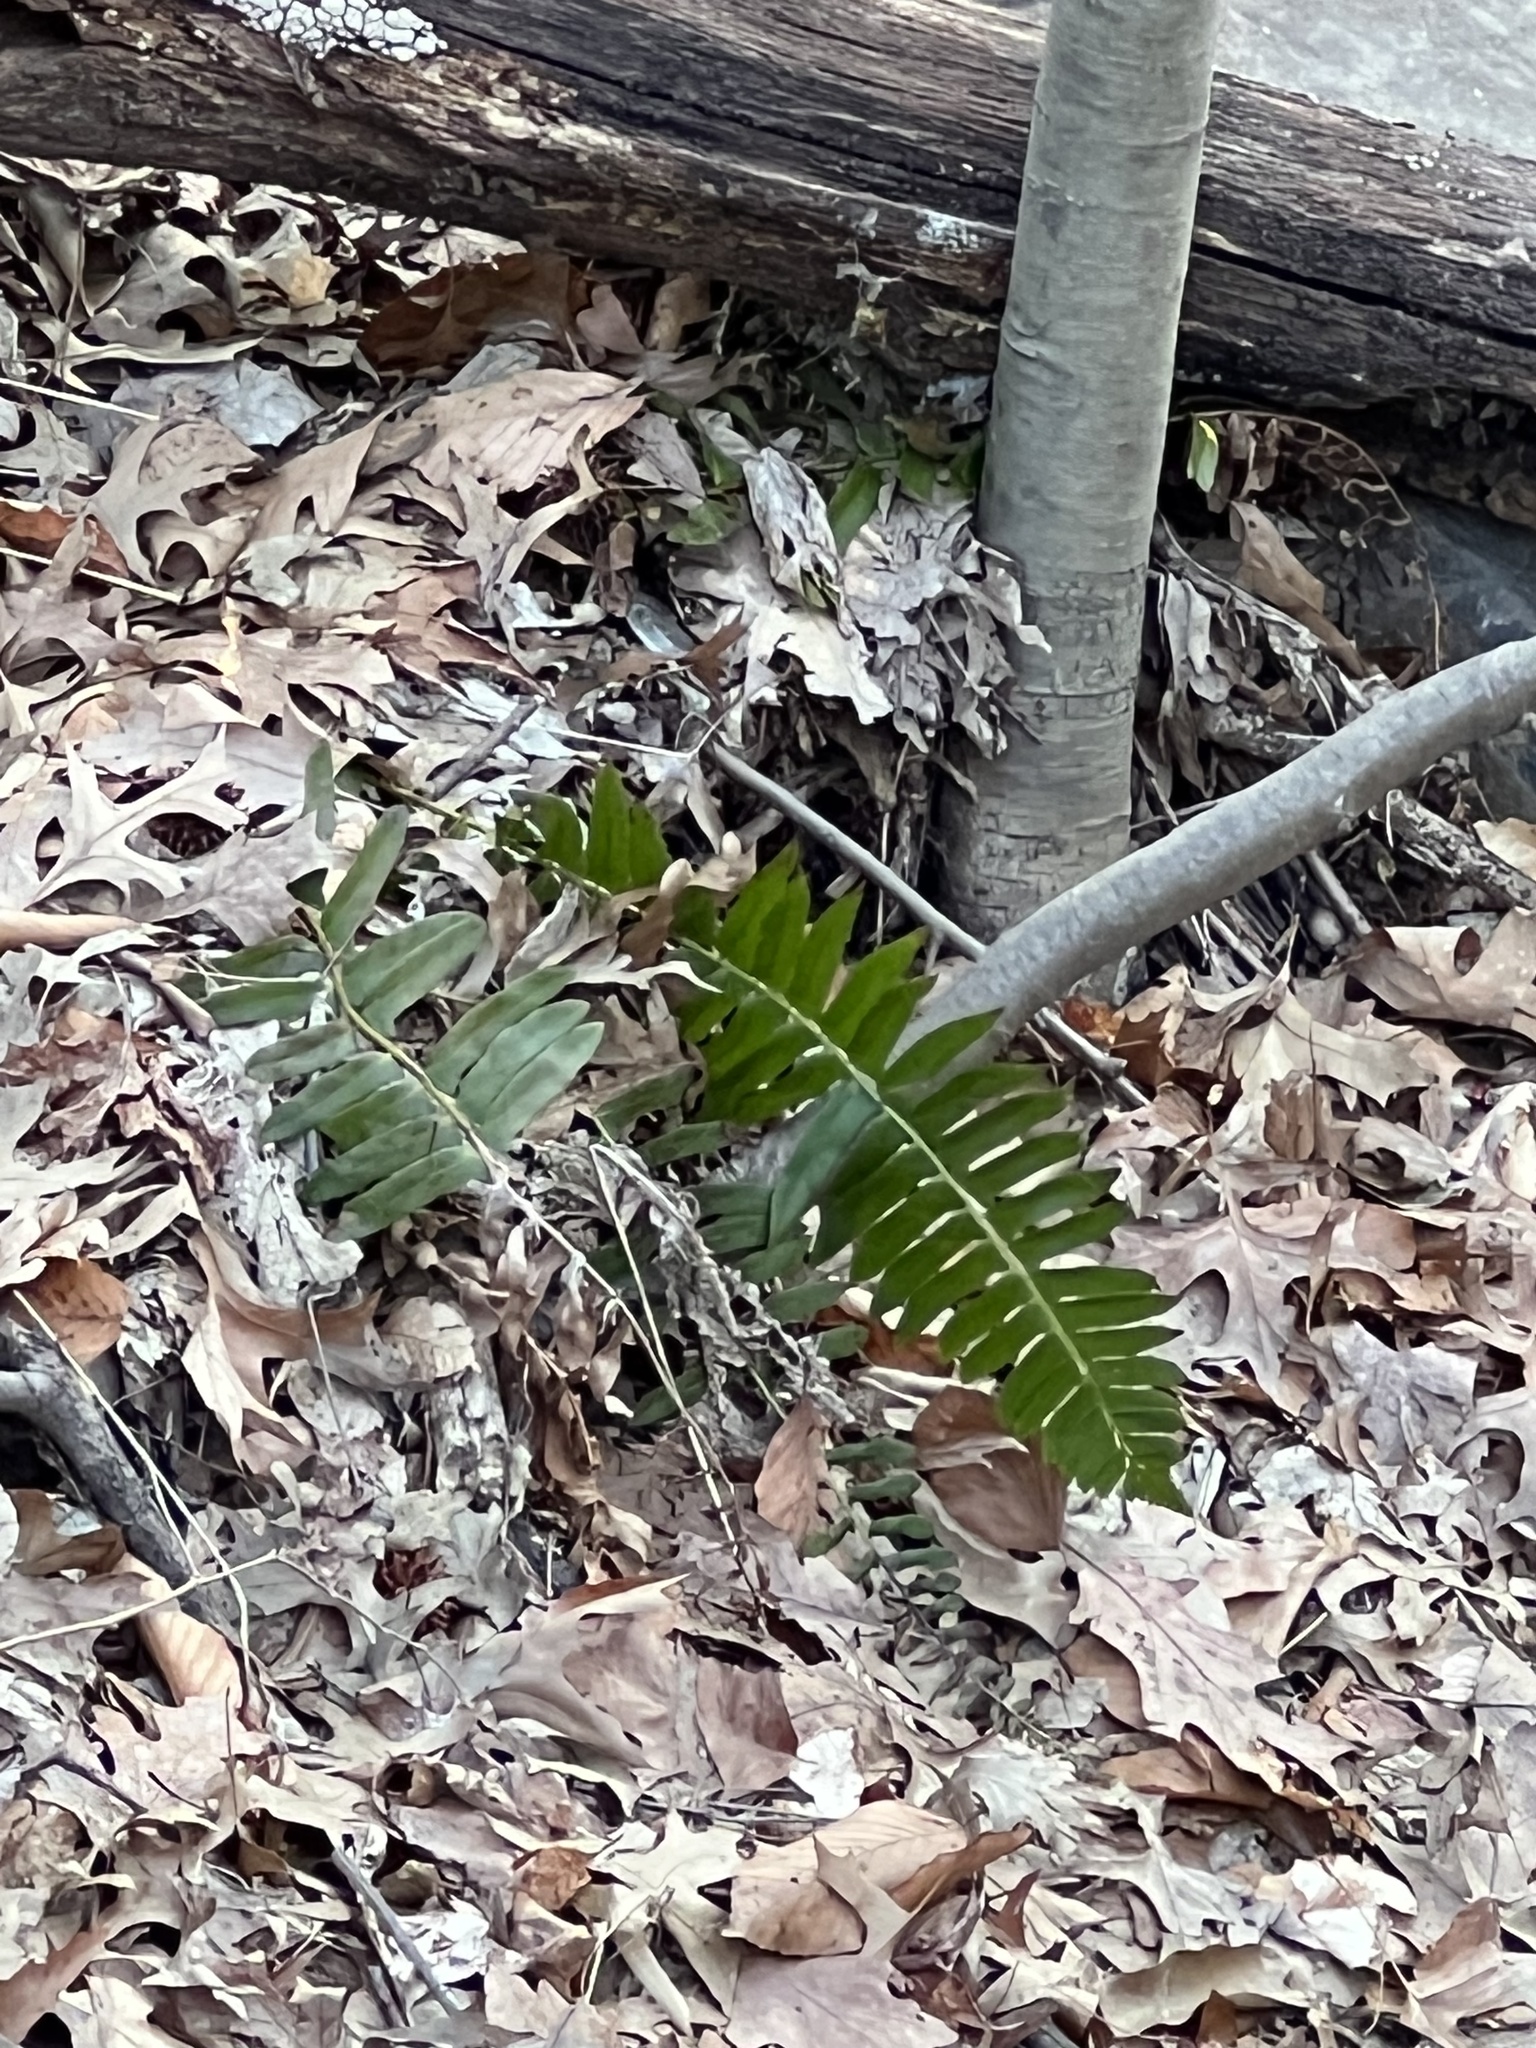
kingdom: Plantae
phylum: Tracheophyta
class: Polypodiopsida
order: Polypodiales
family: Dryopteridaceae
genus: Polystichum
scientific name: Polystichum acrostichoides
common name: Christmas fern
